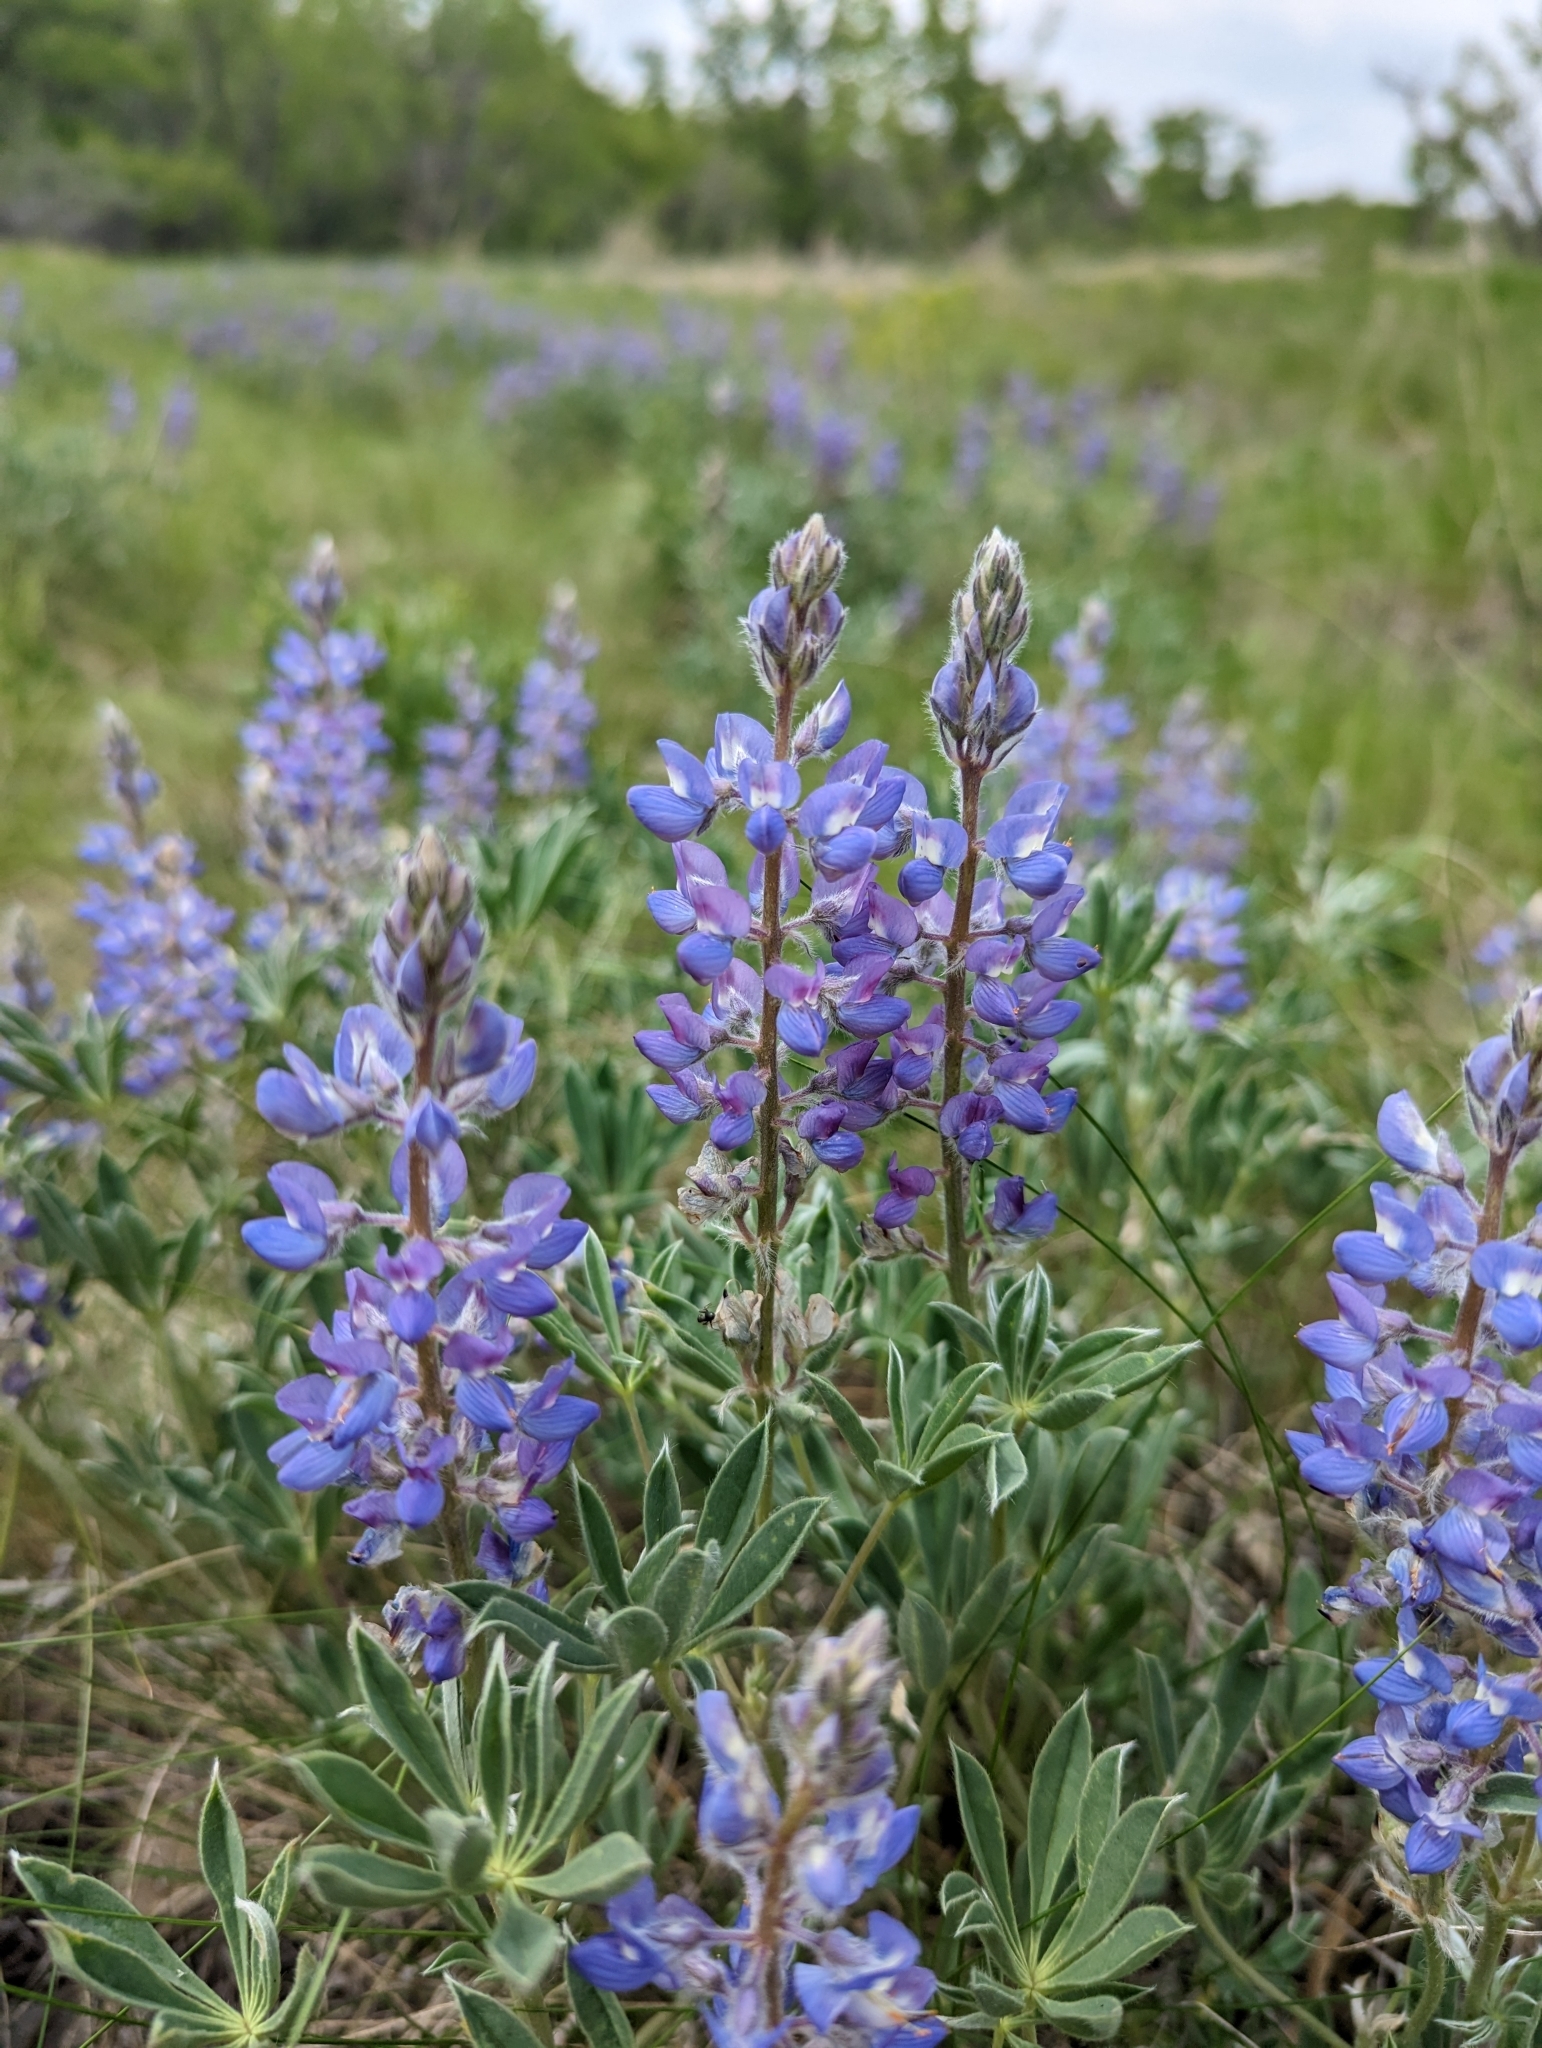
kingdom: Plantae
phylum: Tracheophyta
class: Magnoliopsida
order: Fabales
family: Fabaceae
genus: Lupinus
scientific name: Lupinus argenteus
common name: Silvery lupine
